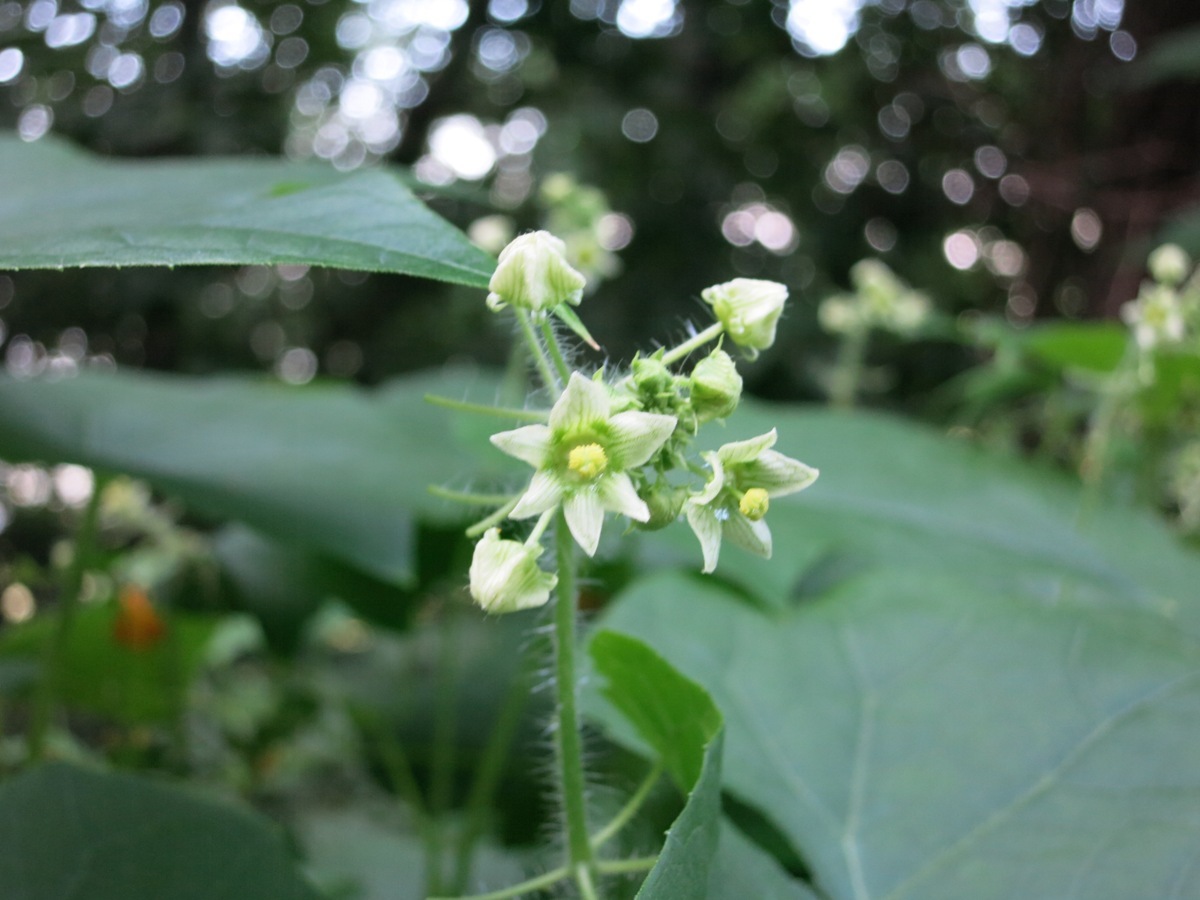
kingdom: Plantae
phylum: Tracheophyta
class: Magnoliopsida
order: Cucurbitales
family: Cucurbitaceae
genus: Sicyos
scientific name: Sicyos angulatus
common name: Angled burr cucumber
